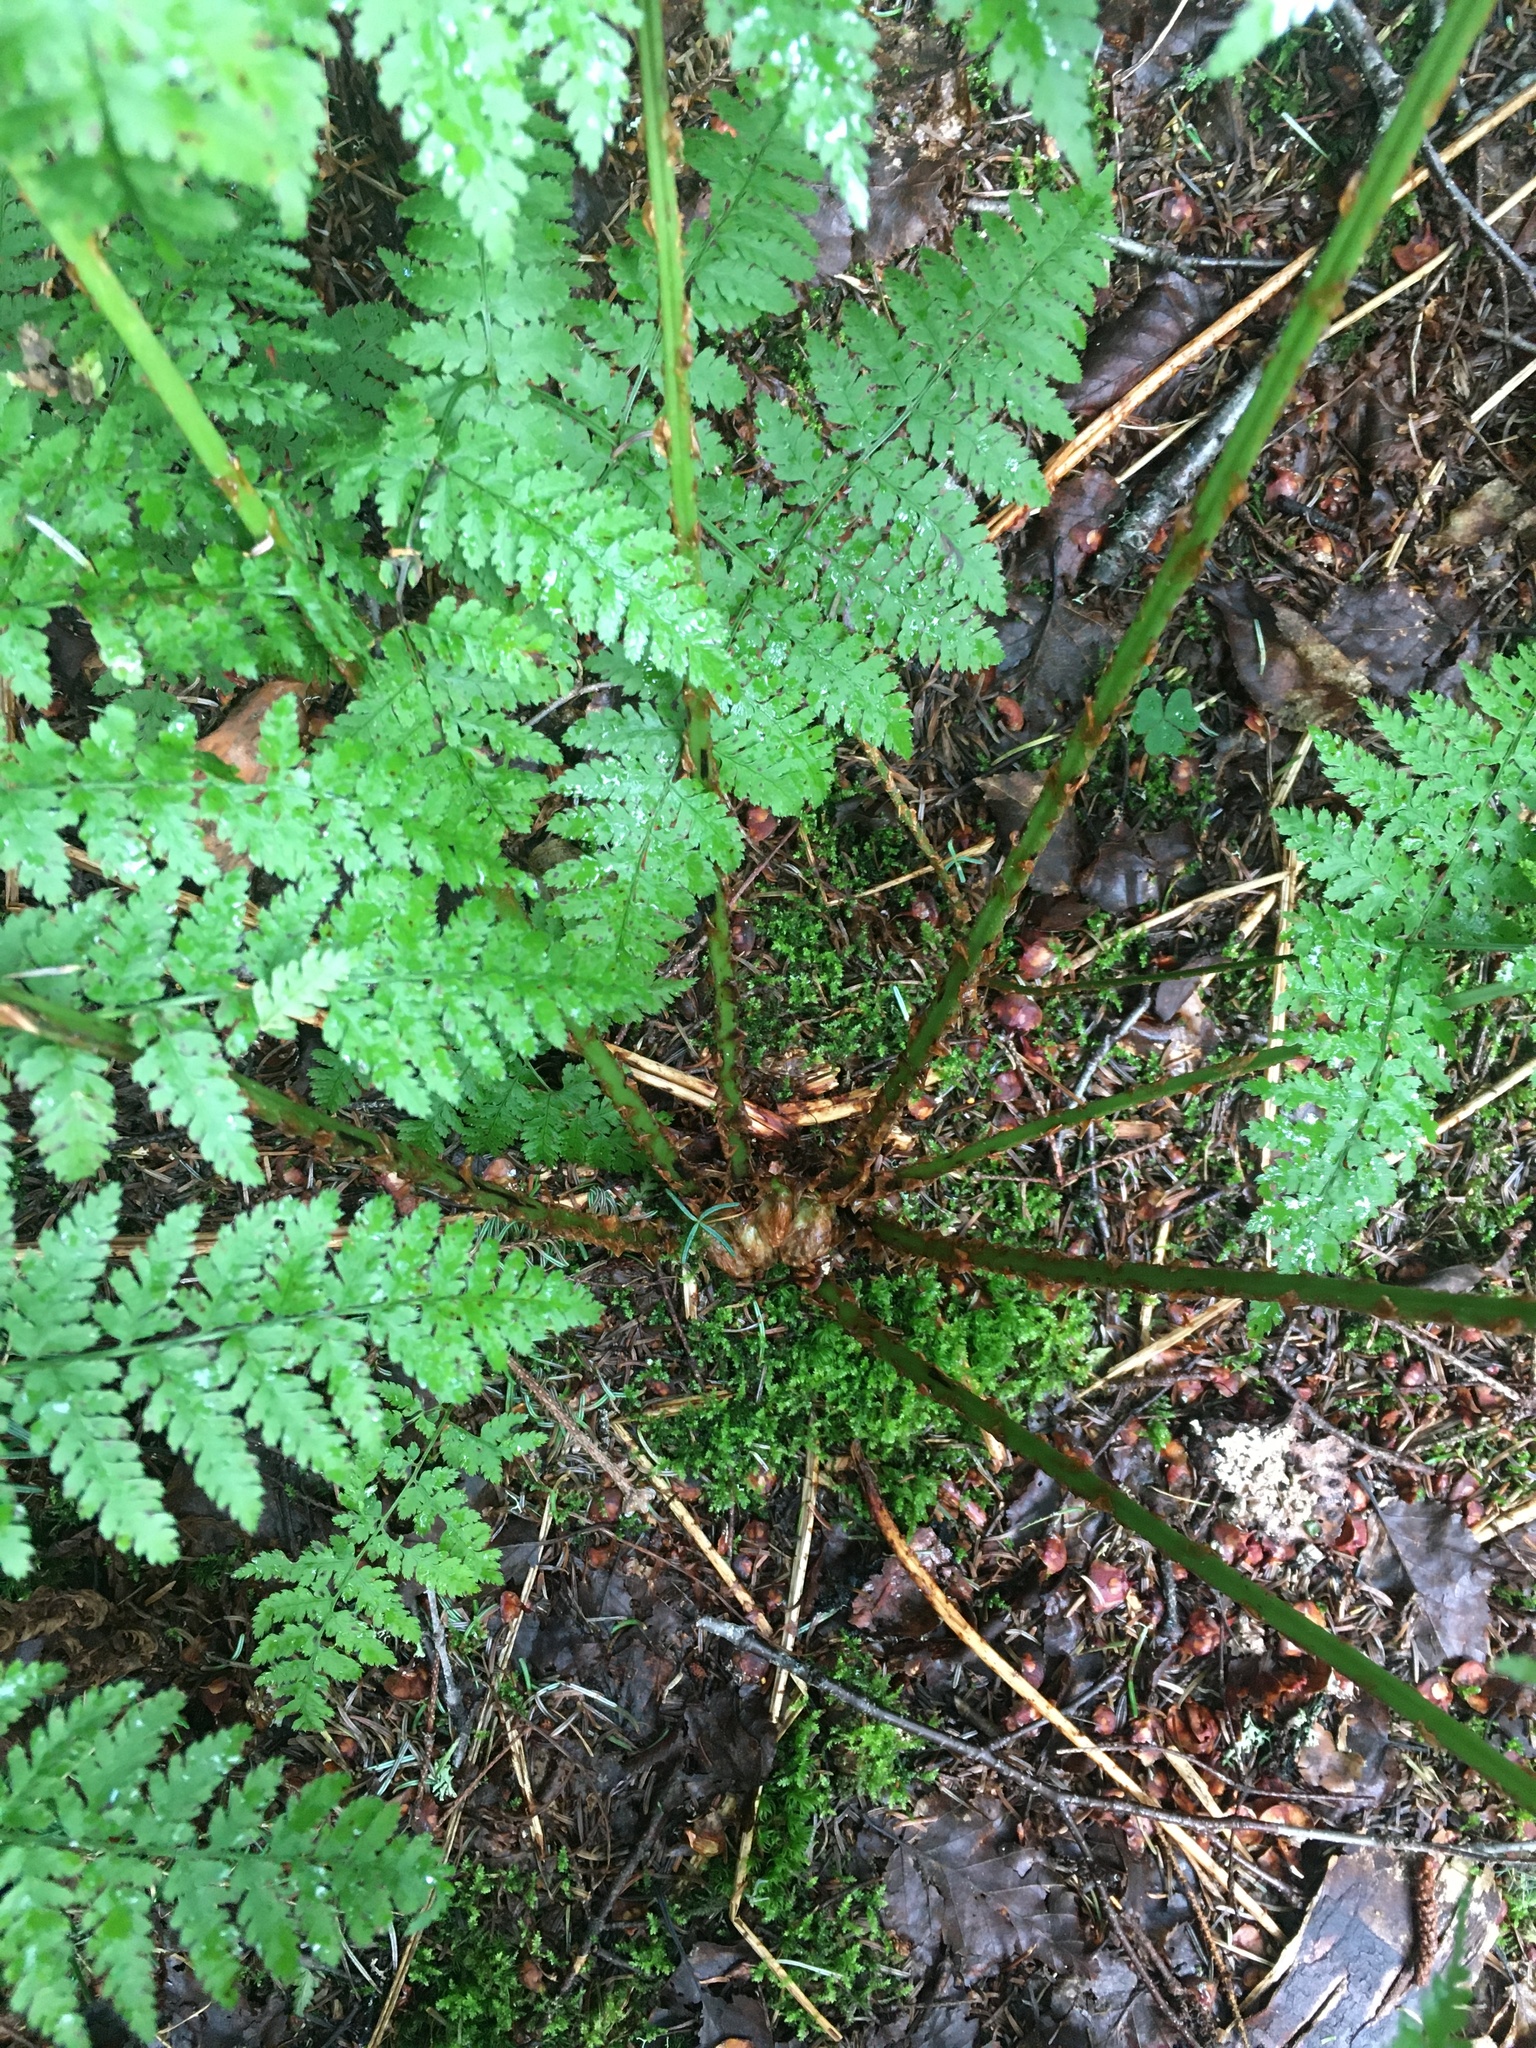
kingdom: Plantae
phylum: Tracheophyta
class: Polypodiopsida
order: Polypodiales
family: Dryopteridaceae
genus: Dryopteris
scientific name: Dryopteris campyloptera
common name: Mountain wood fern
